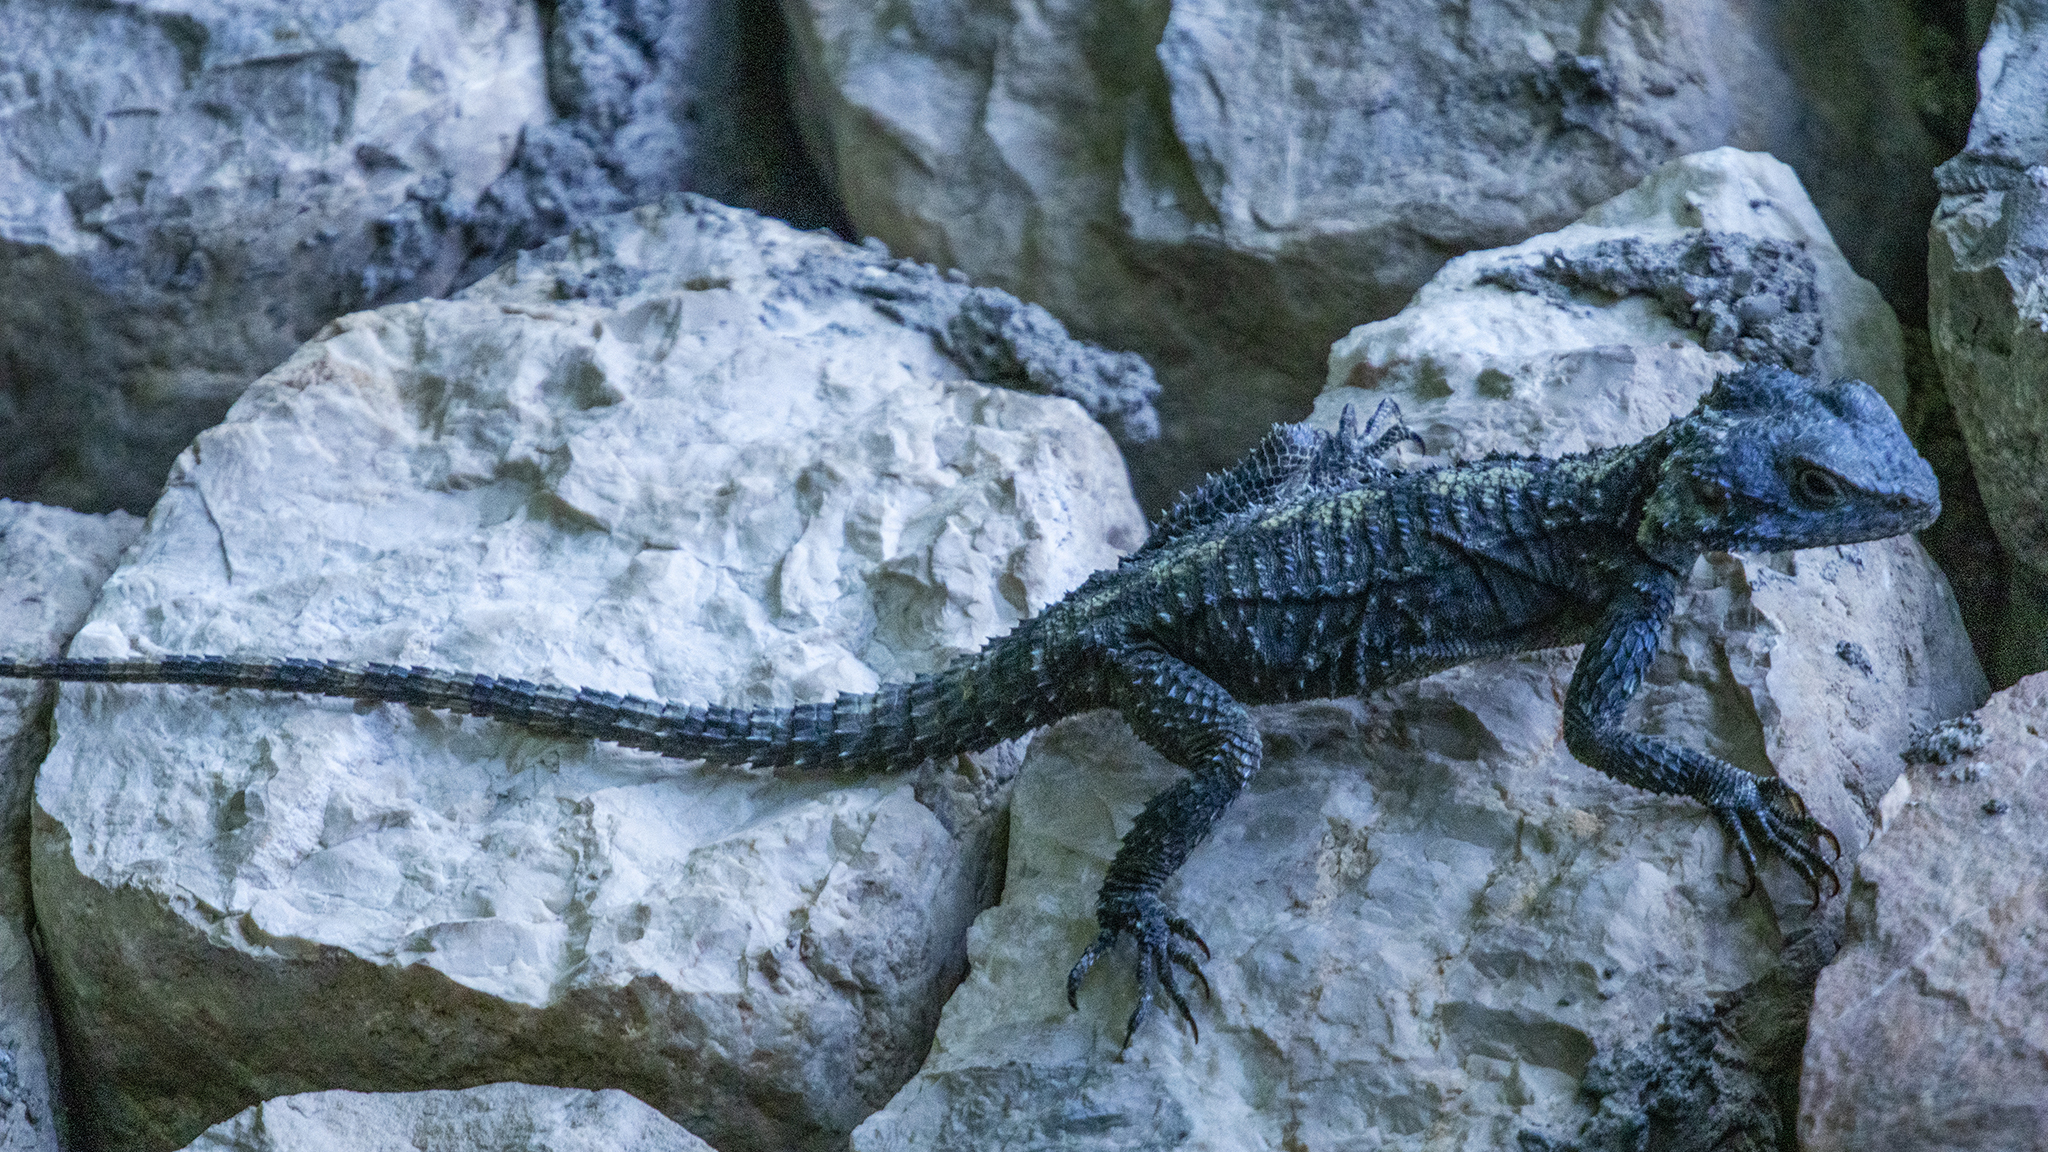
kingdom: Animalia
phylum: Chordata
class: Squamata
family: Agamidae
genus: Stellagama
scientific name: Stellagama stellio
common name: Starred agama
